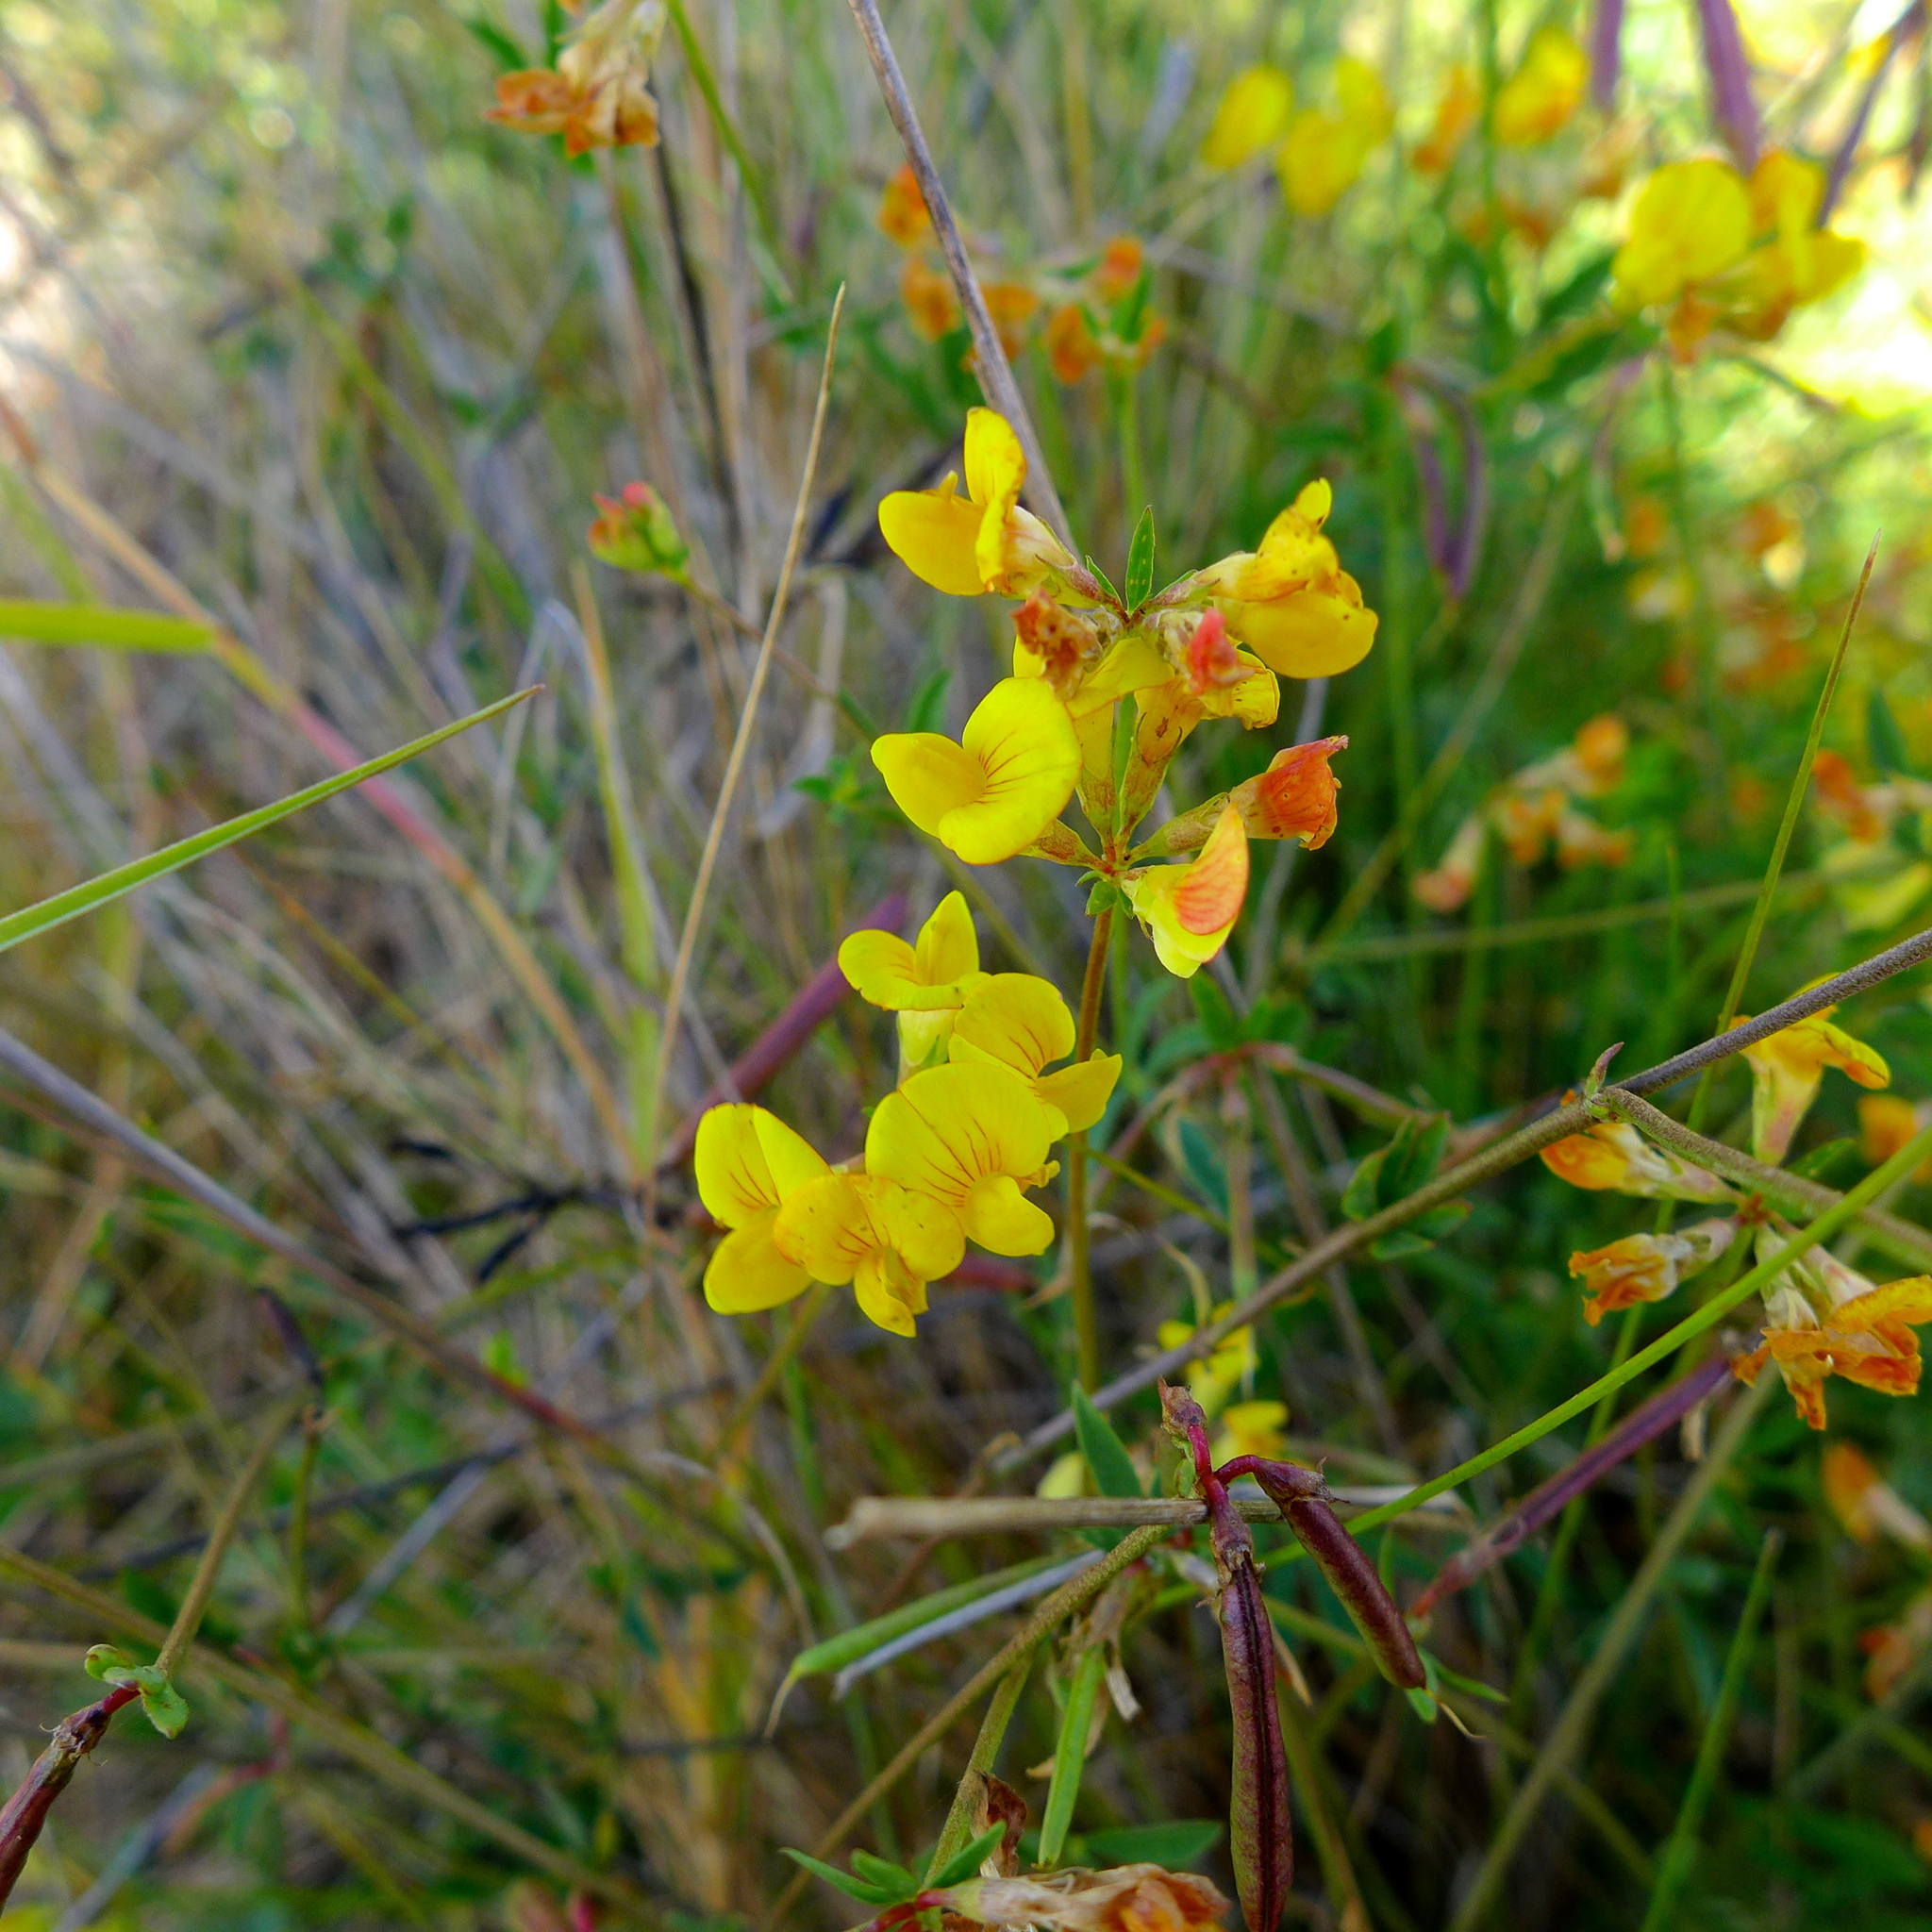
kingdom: Plantae
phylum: Tracheophyta
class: Magnoliopsida
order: Fabales
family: Fabaceae
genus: Acmispon
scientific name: Acmispon glaber
